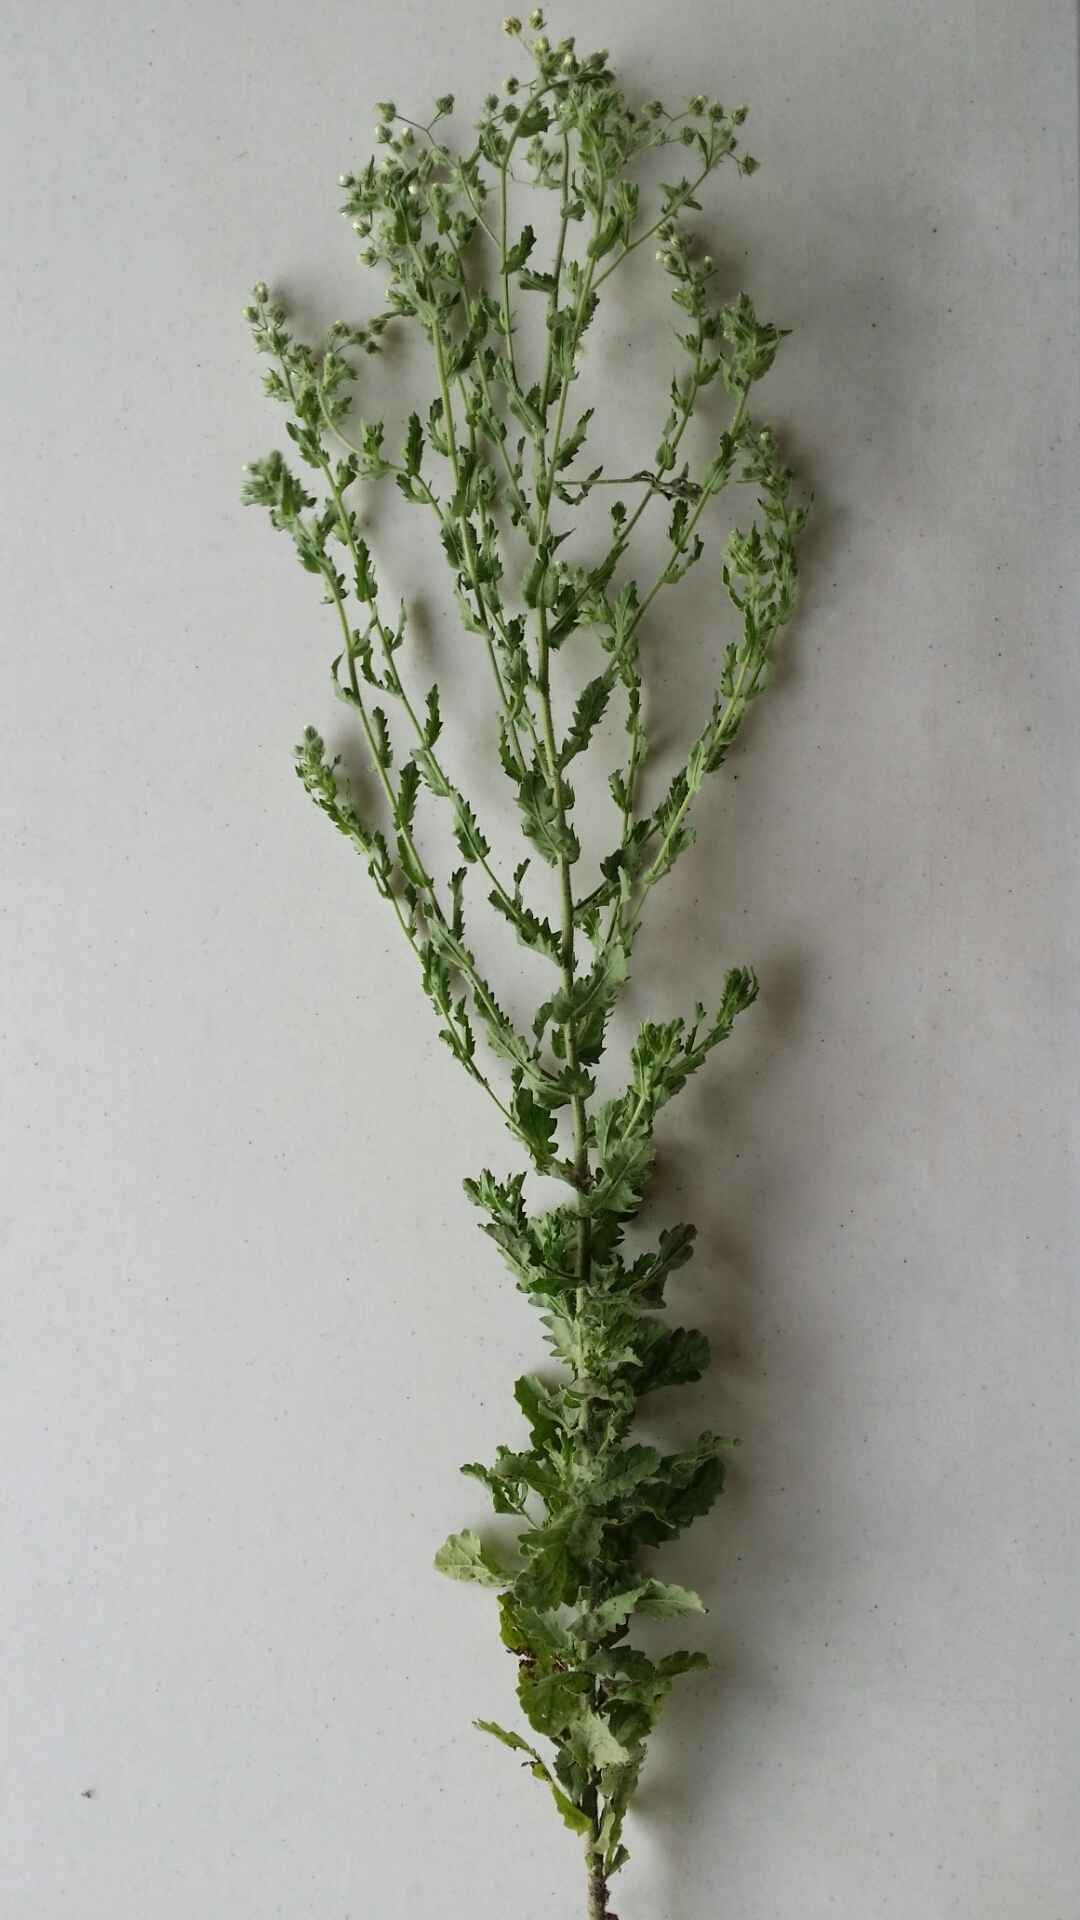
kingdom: Plantae
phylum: Tracheophyta
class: Magnoliopsida
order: Asterales
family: Asteraceae
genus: Laennecia
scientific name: Laennecia coulteri
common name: Coulter's woolwort
